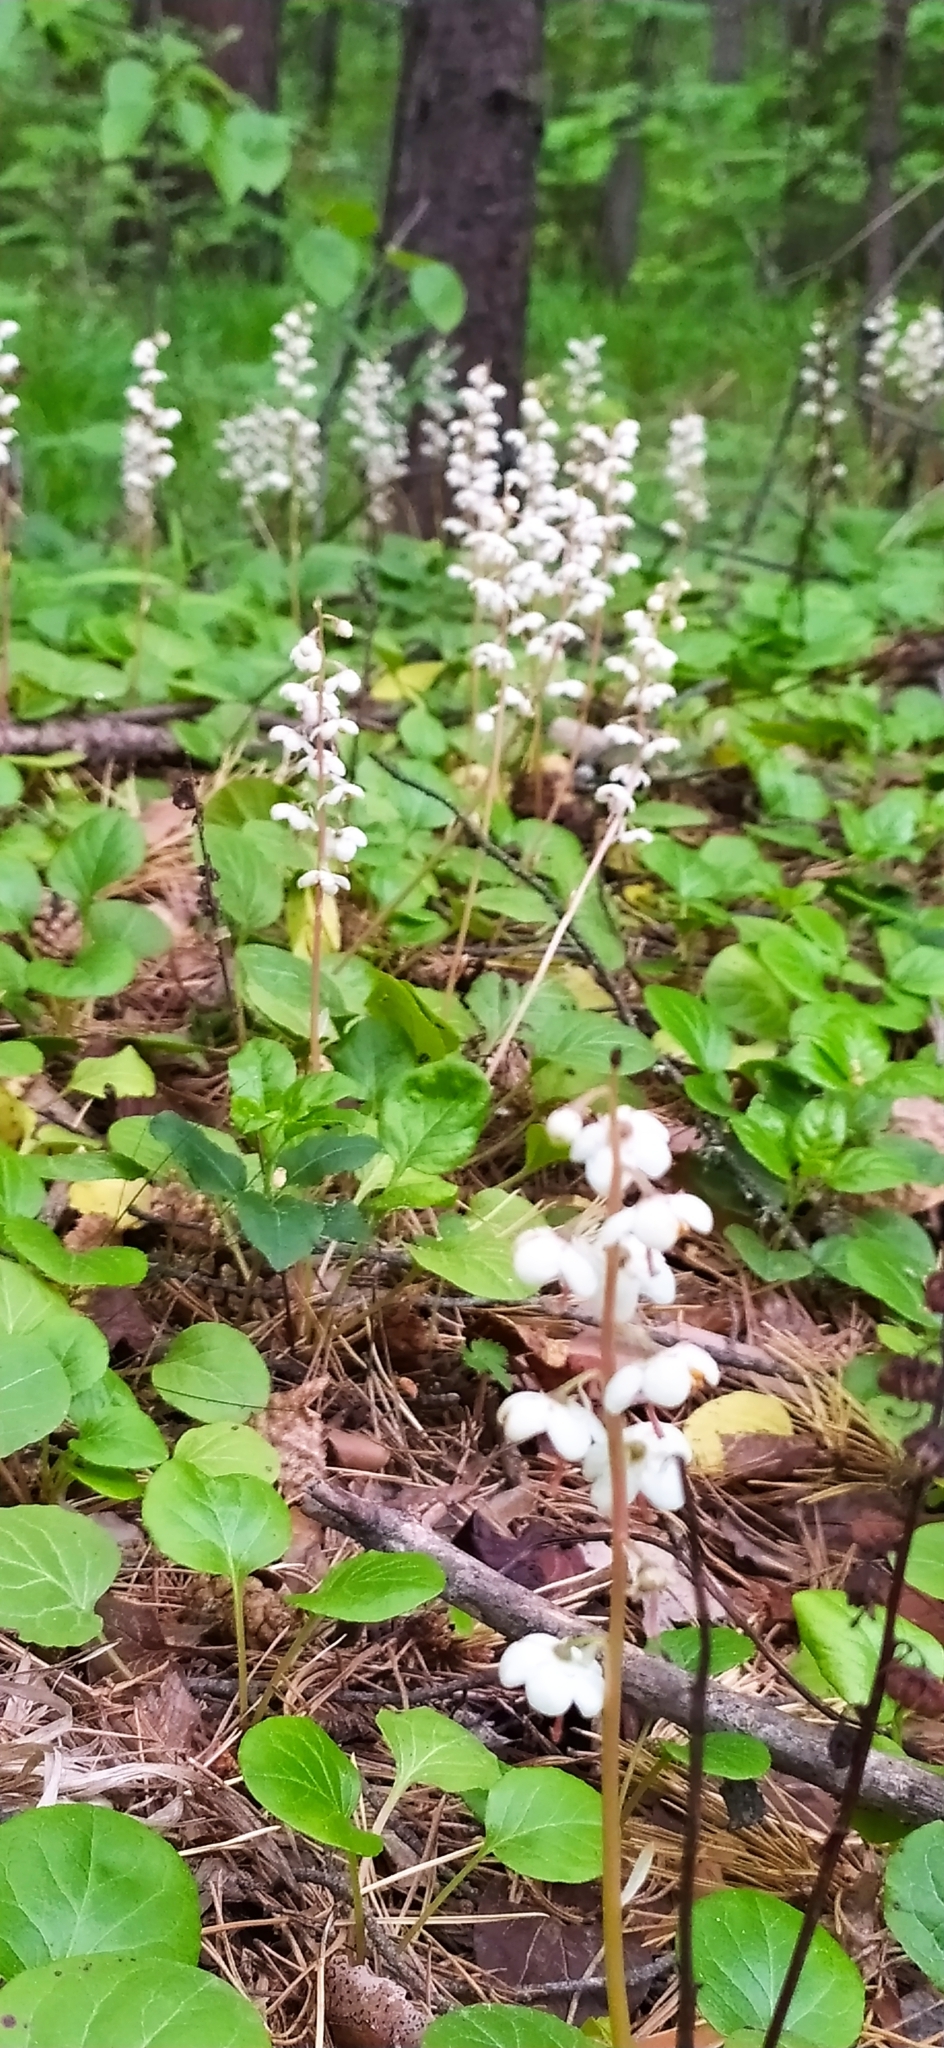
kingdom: Plantae
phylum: Tracheophyta
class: Magnoliopsida
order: Ericales
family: Ericaceae
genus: Pyrola
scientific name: Pyrola rotundifolia
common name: Round-leaved wintergreen
